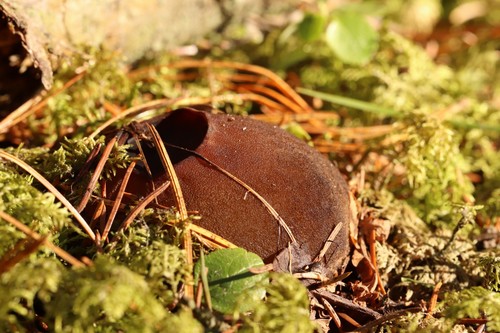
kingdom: Fungi
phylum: Ascomycota
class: Pezizomycetes
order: Pezizales
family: Sarcosomataceae
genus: Sarcosoma
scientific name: Sarcosoma globosum
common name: Charred-pancake cup
